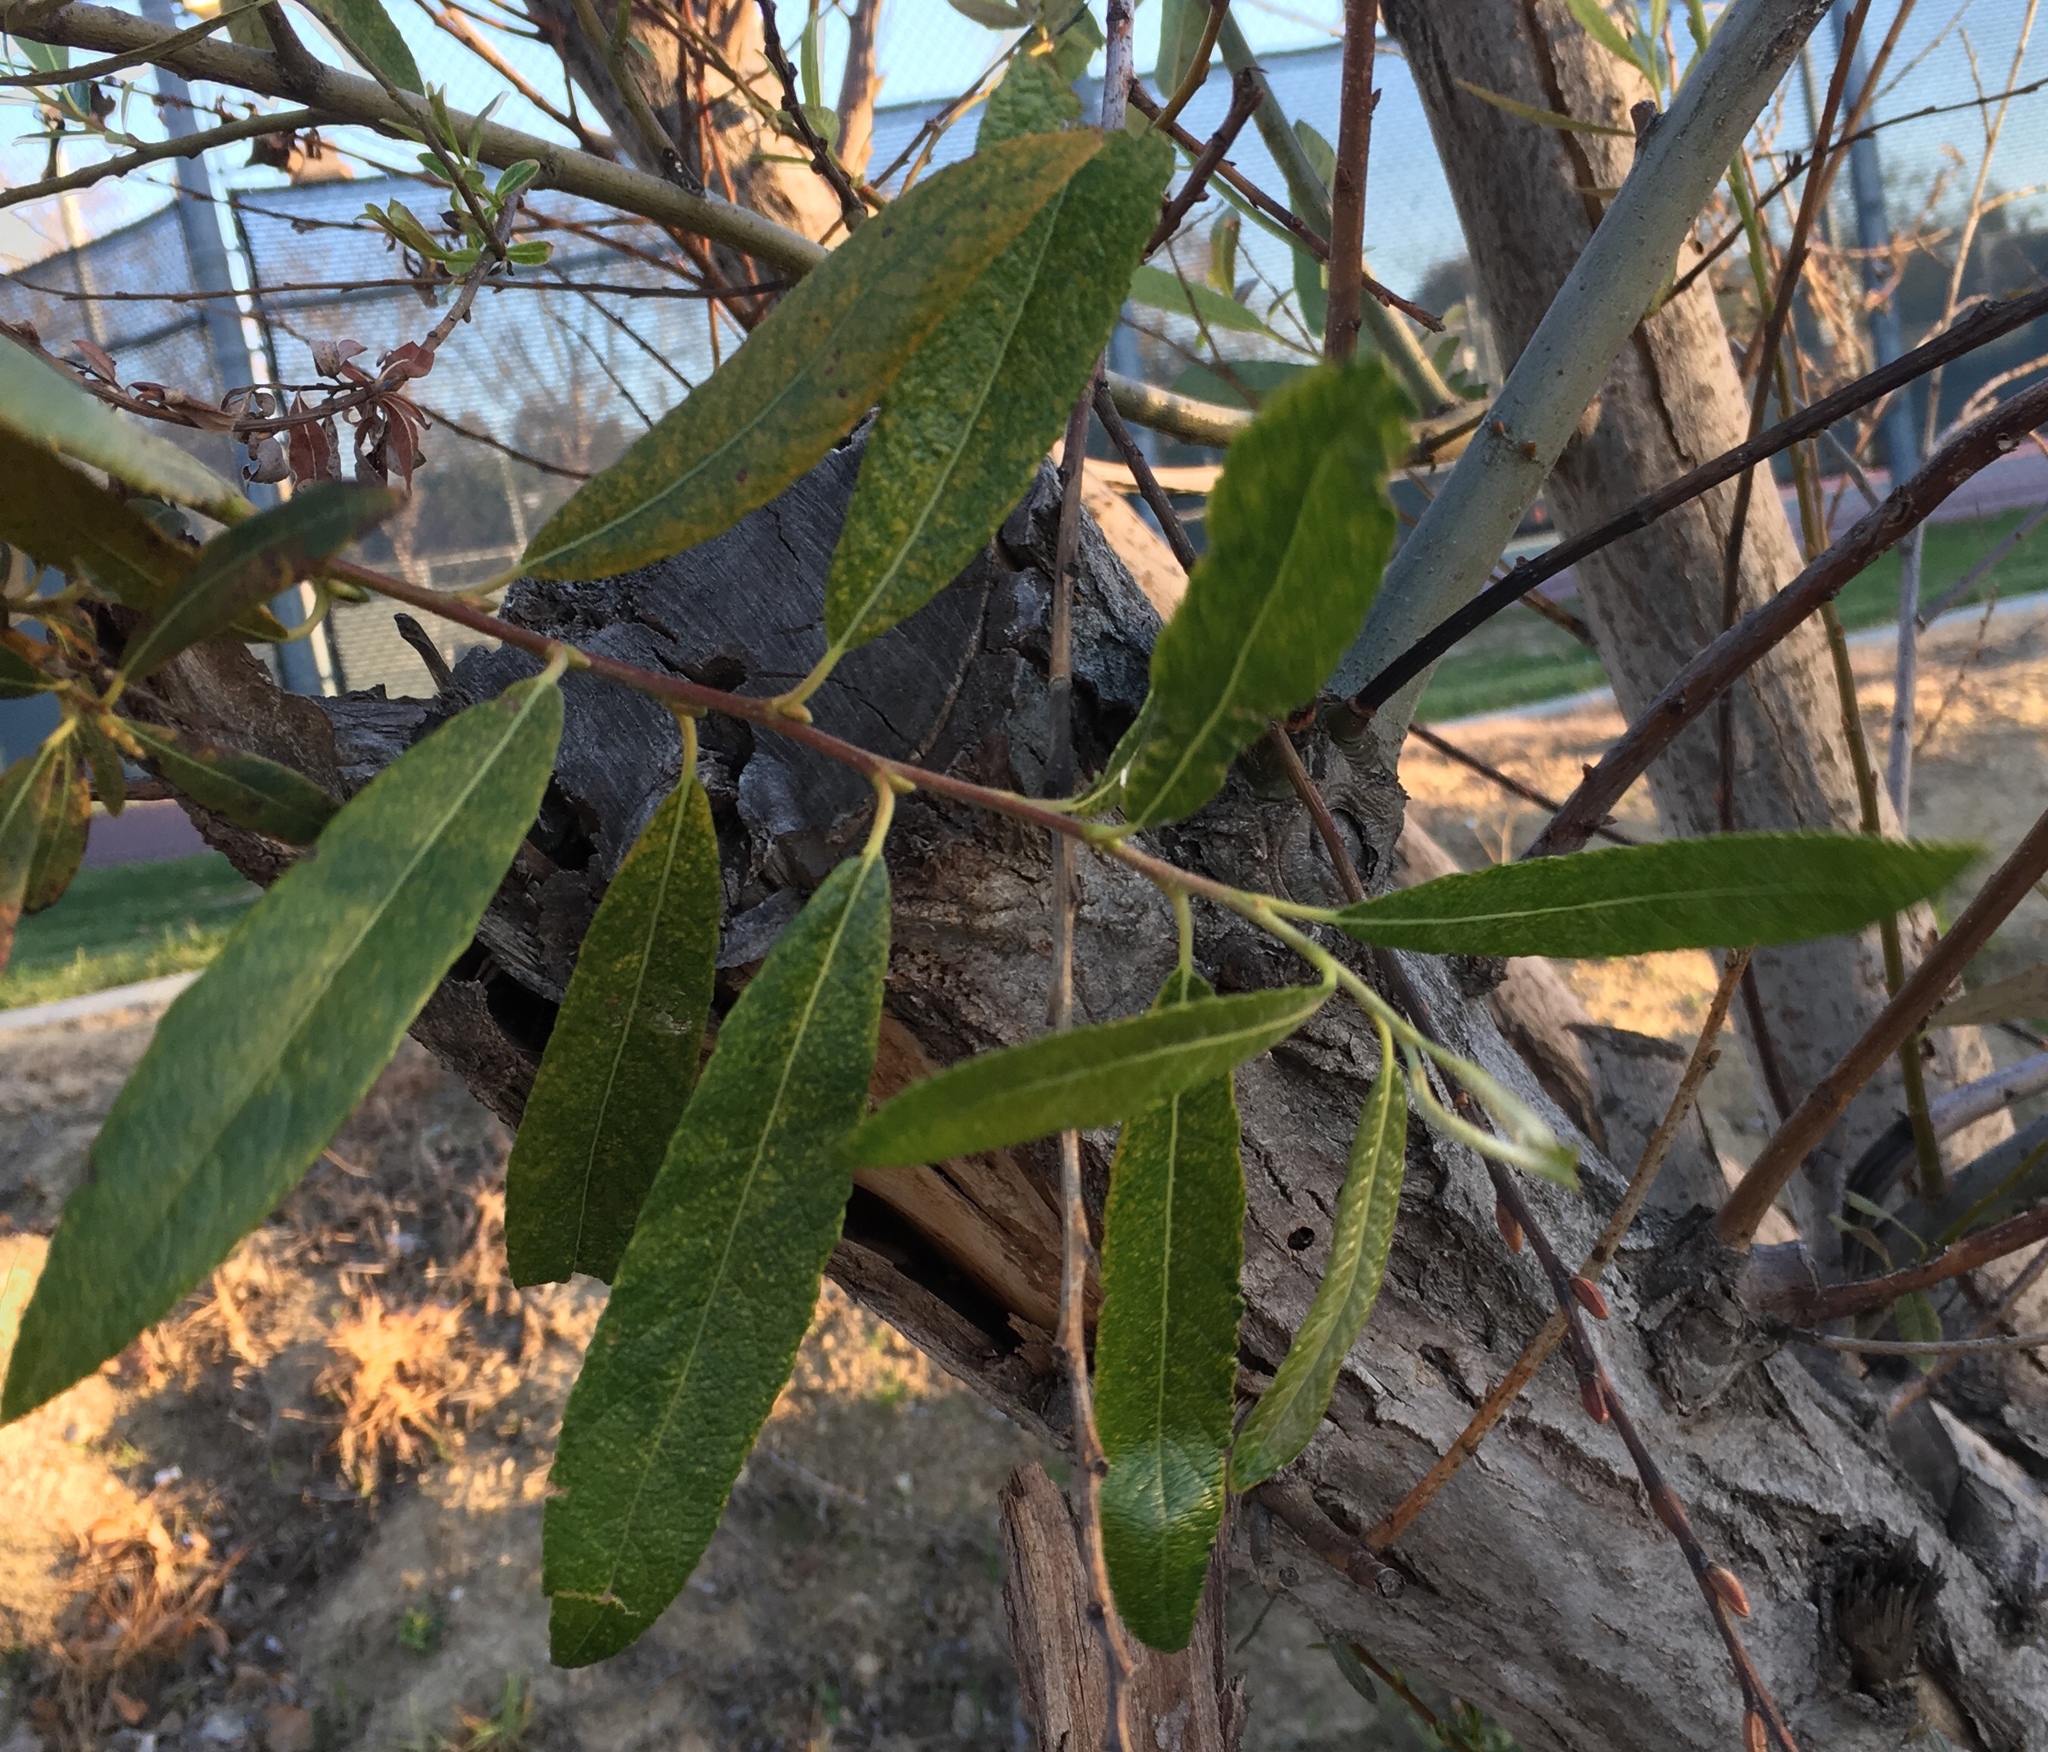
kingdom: Plantae
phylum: Tracheophyta
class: Magnoliopsida
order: Malpighiales
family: Salicaceae
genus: Salix
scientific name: Salix lasiolepis
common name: Arroyo willow
